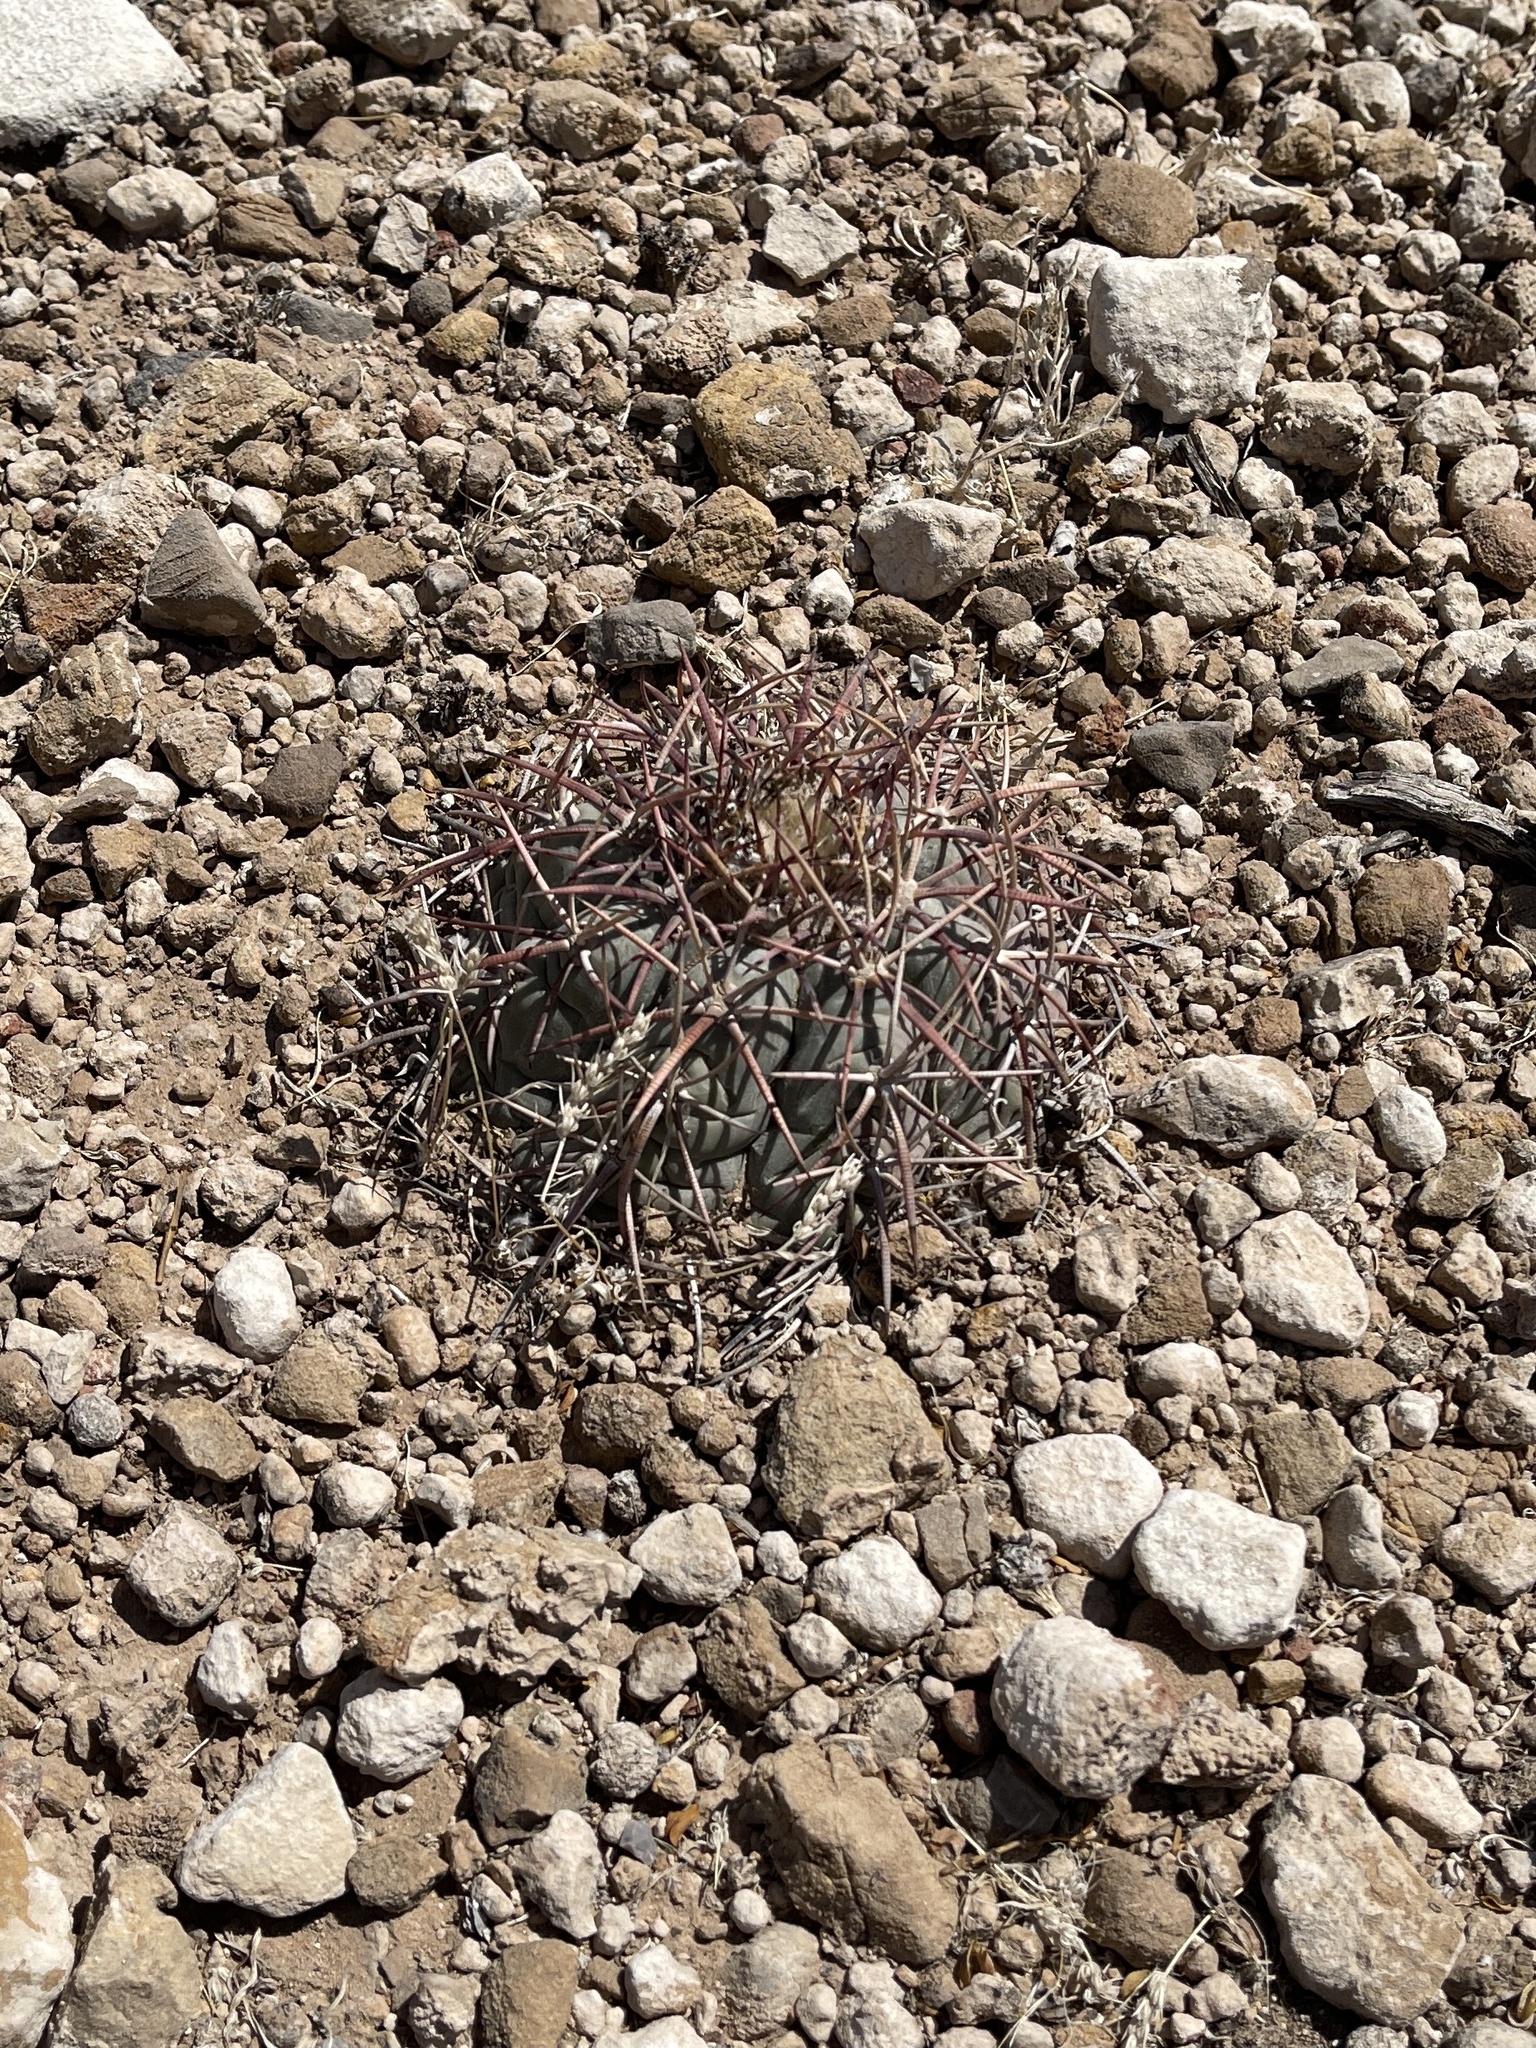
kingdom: Plantae
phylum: Tracheophyta
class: Magnoliopsida
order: Caryophyllales
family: Cactaceae
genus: Echinocactus
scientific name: Echinocactus horizonthalonius
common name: Devilshead
